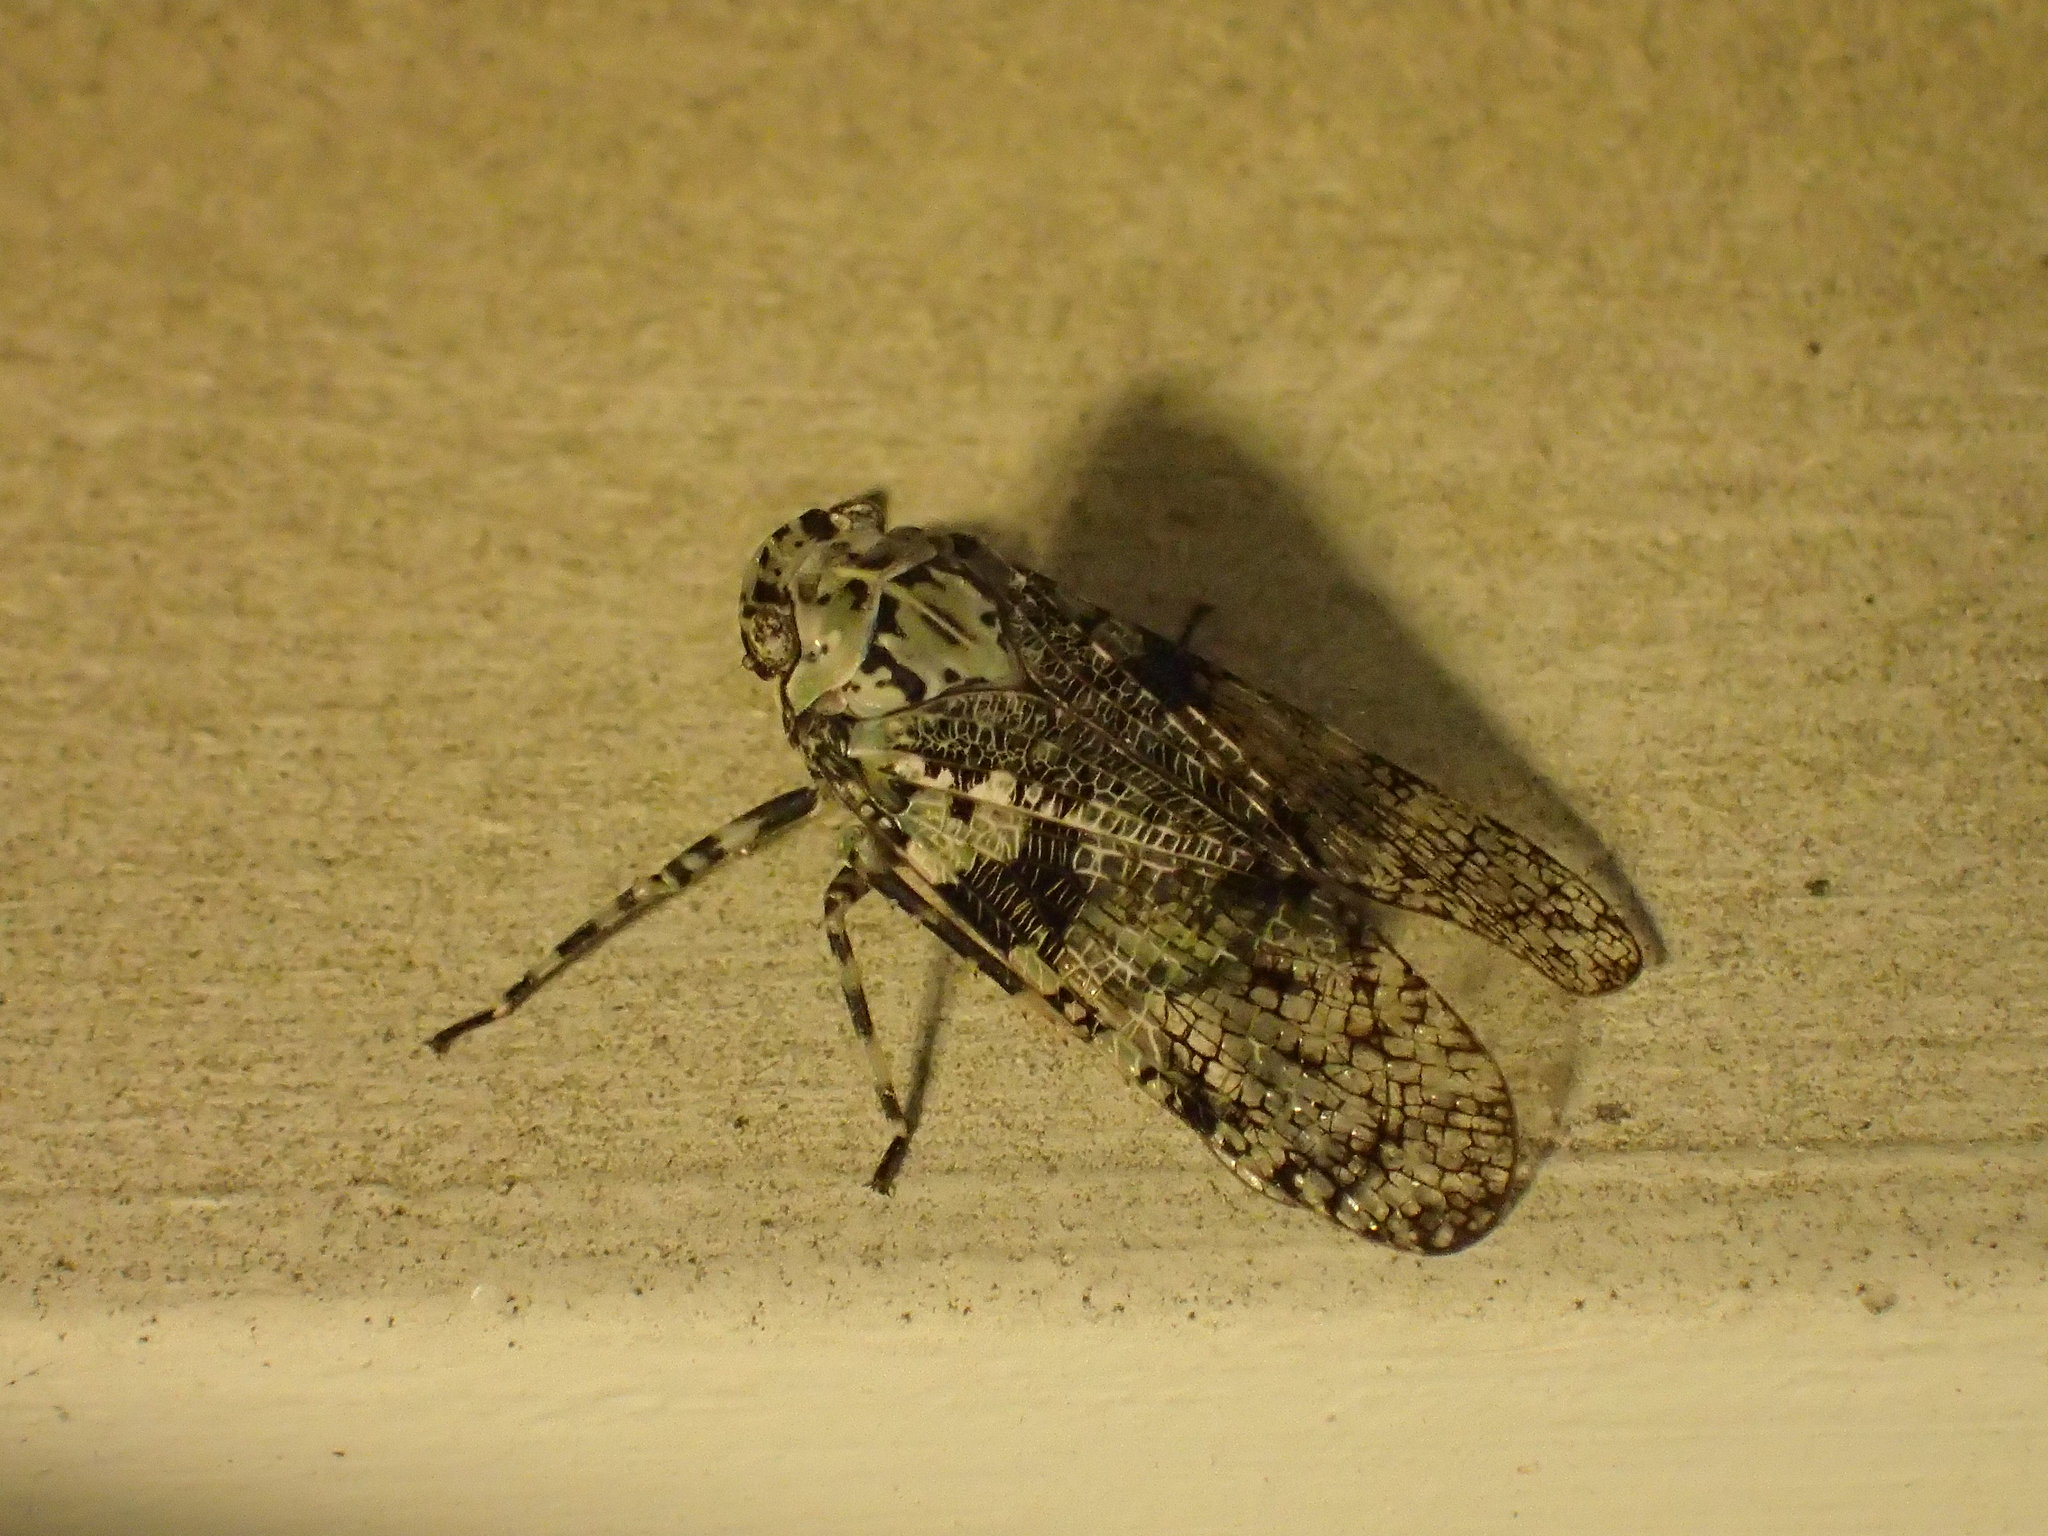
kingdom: Animalia
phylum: Arthropoda
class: Insecta
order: Hemiptera
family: Fulgoridae
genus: Calyptoproctus
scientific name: Calyptoproctus marmoratus
